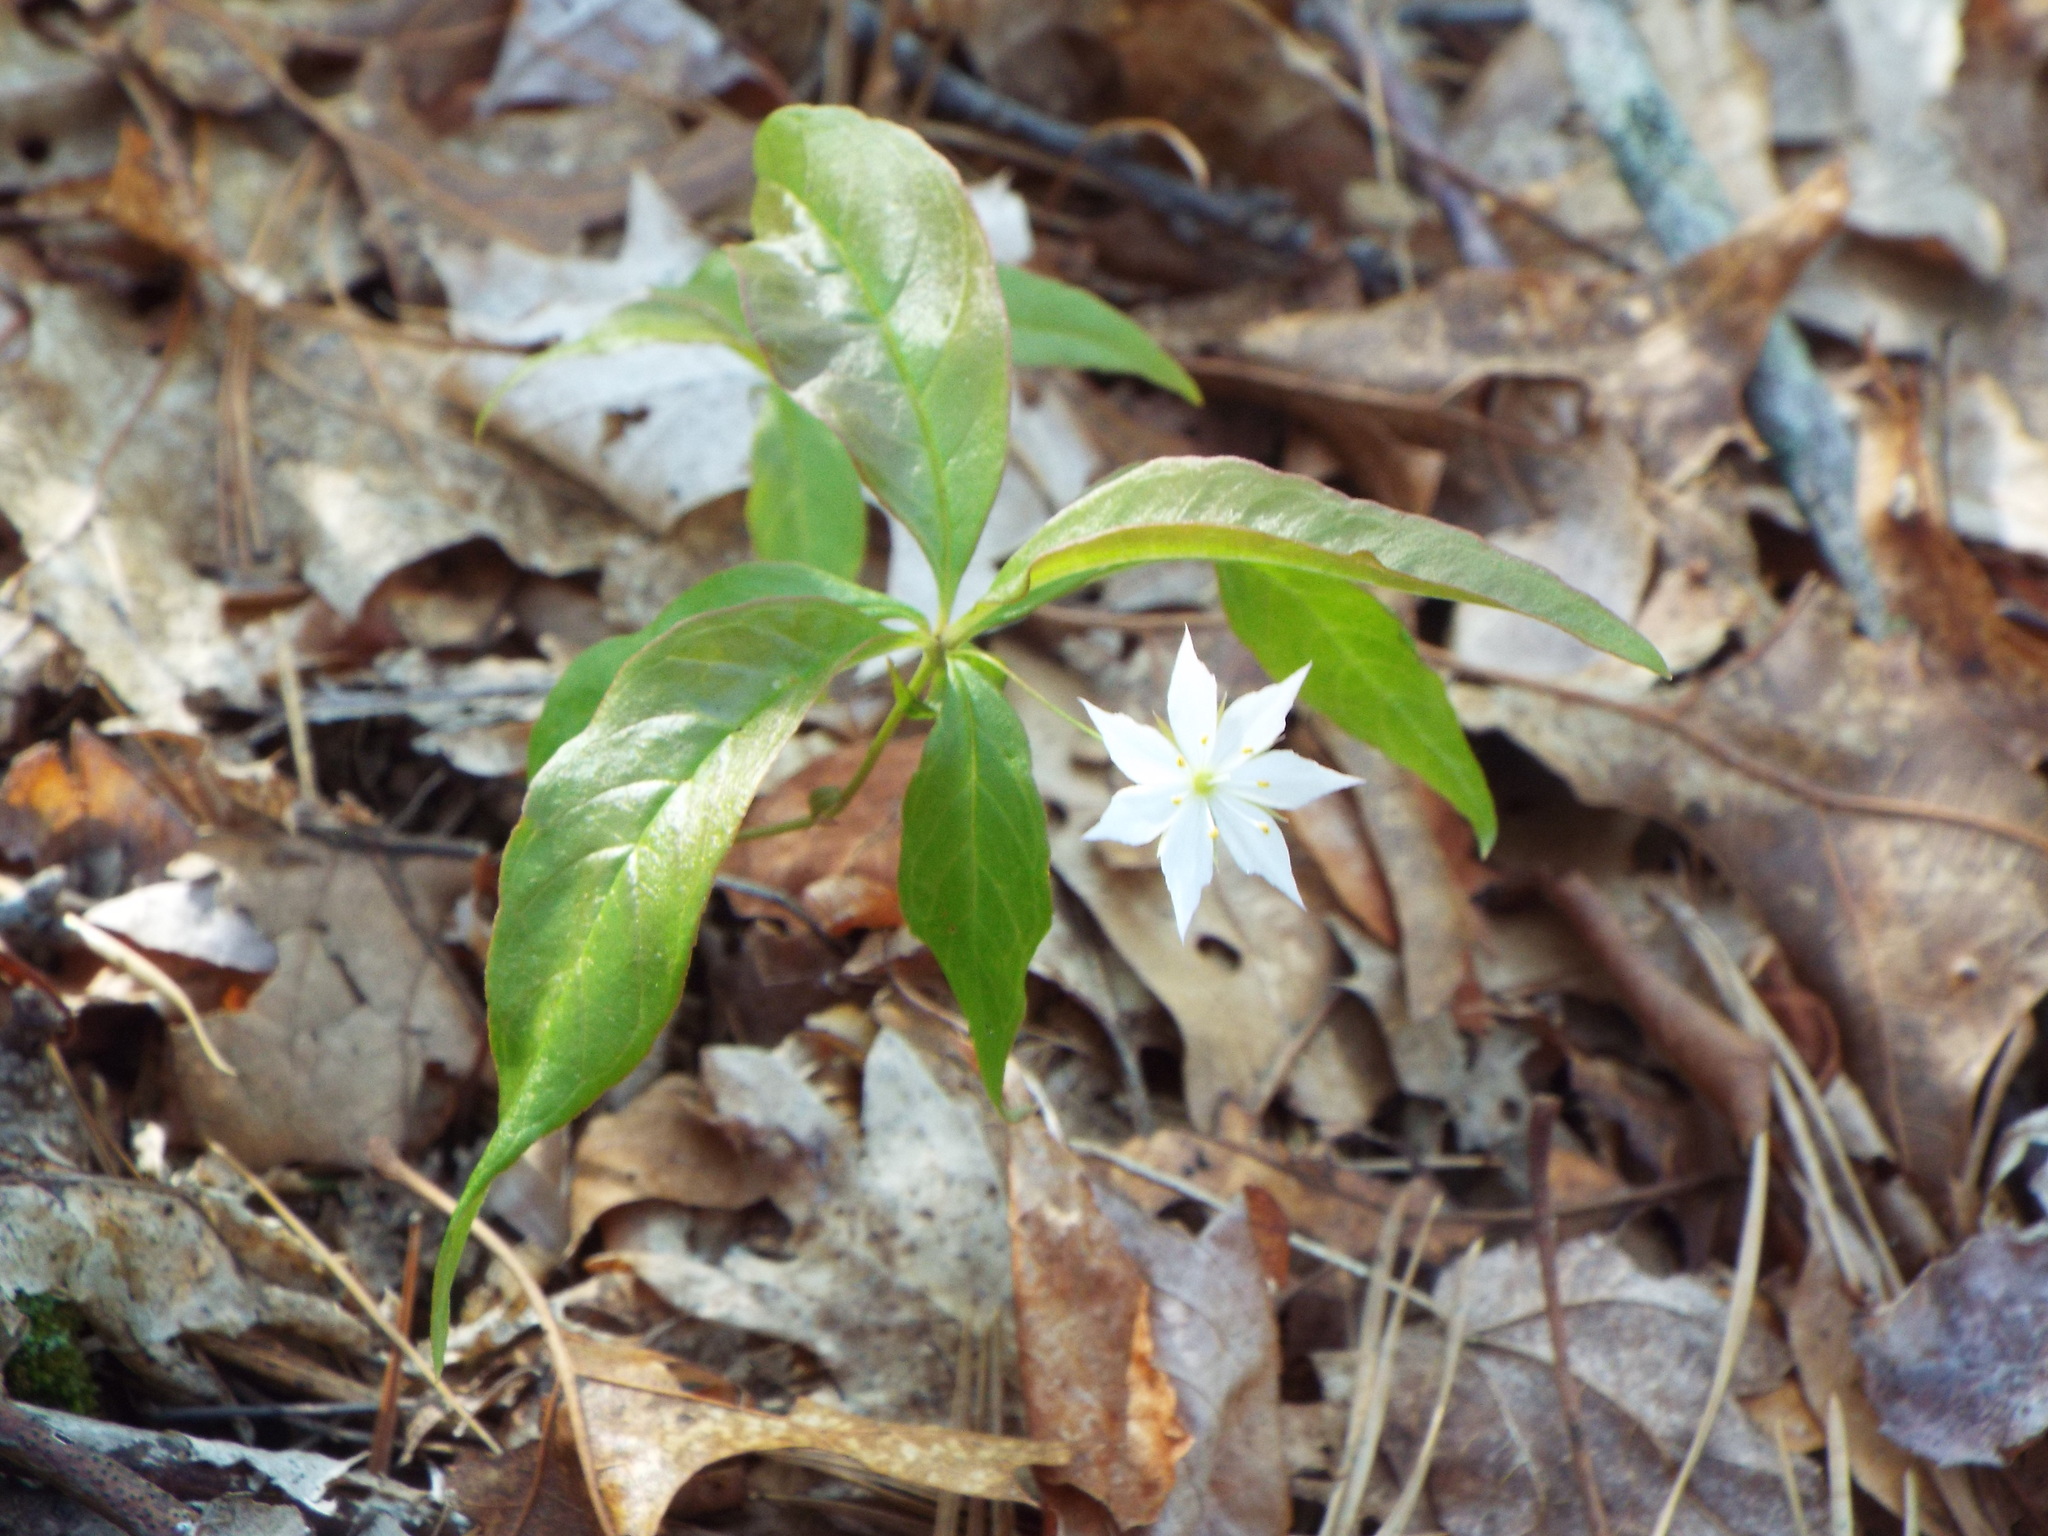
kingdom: Plantae
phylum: Tracheophyta
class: Magnoliopsida
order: Ericales
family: Primulaceae
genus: Lysimachia
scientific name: Lysimachia borealis
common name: American starflower
